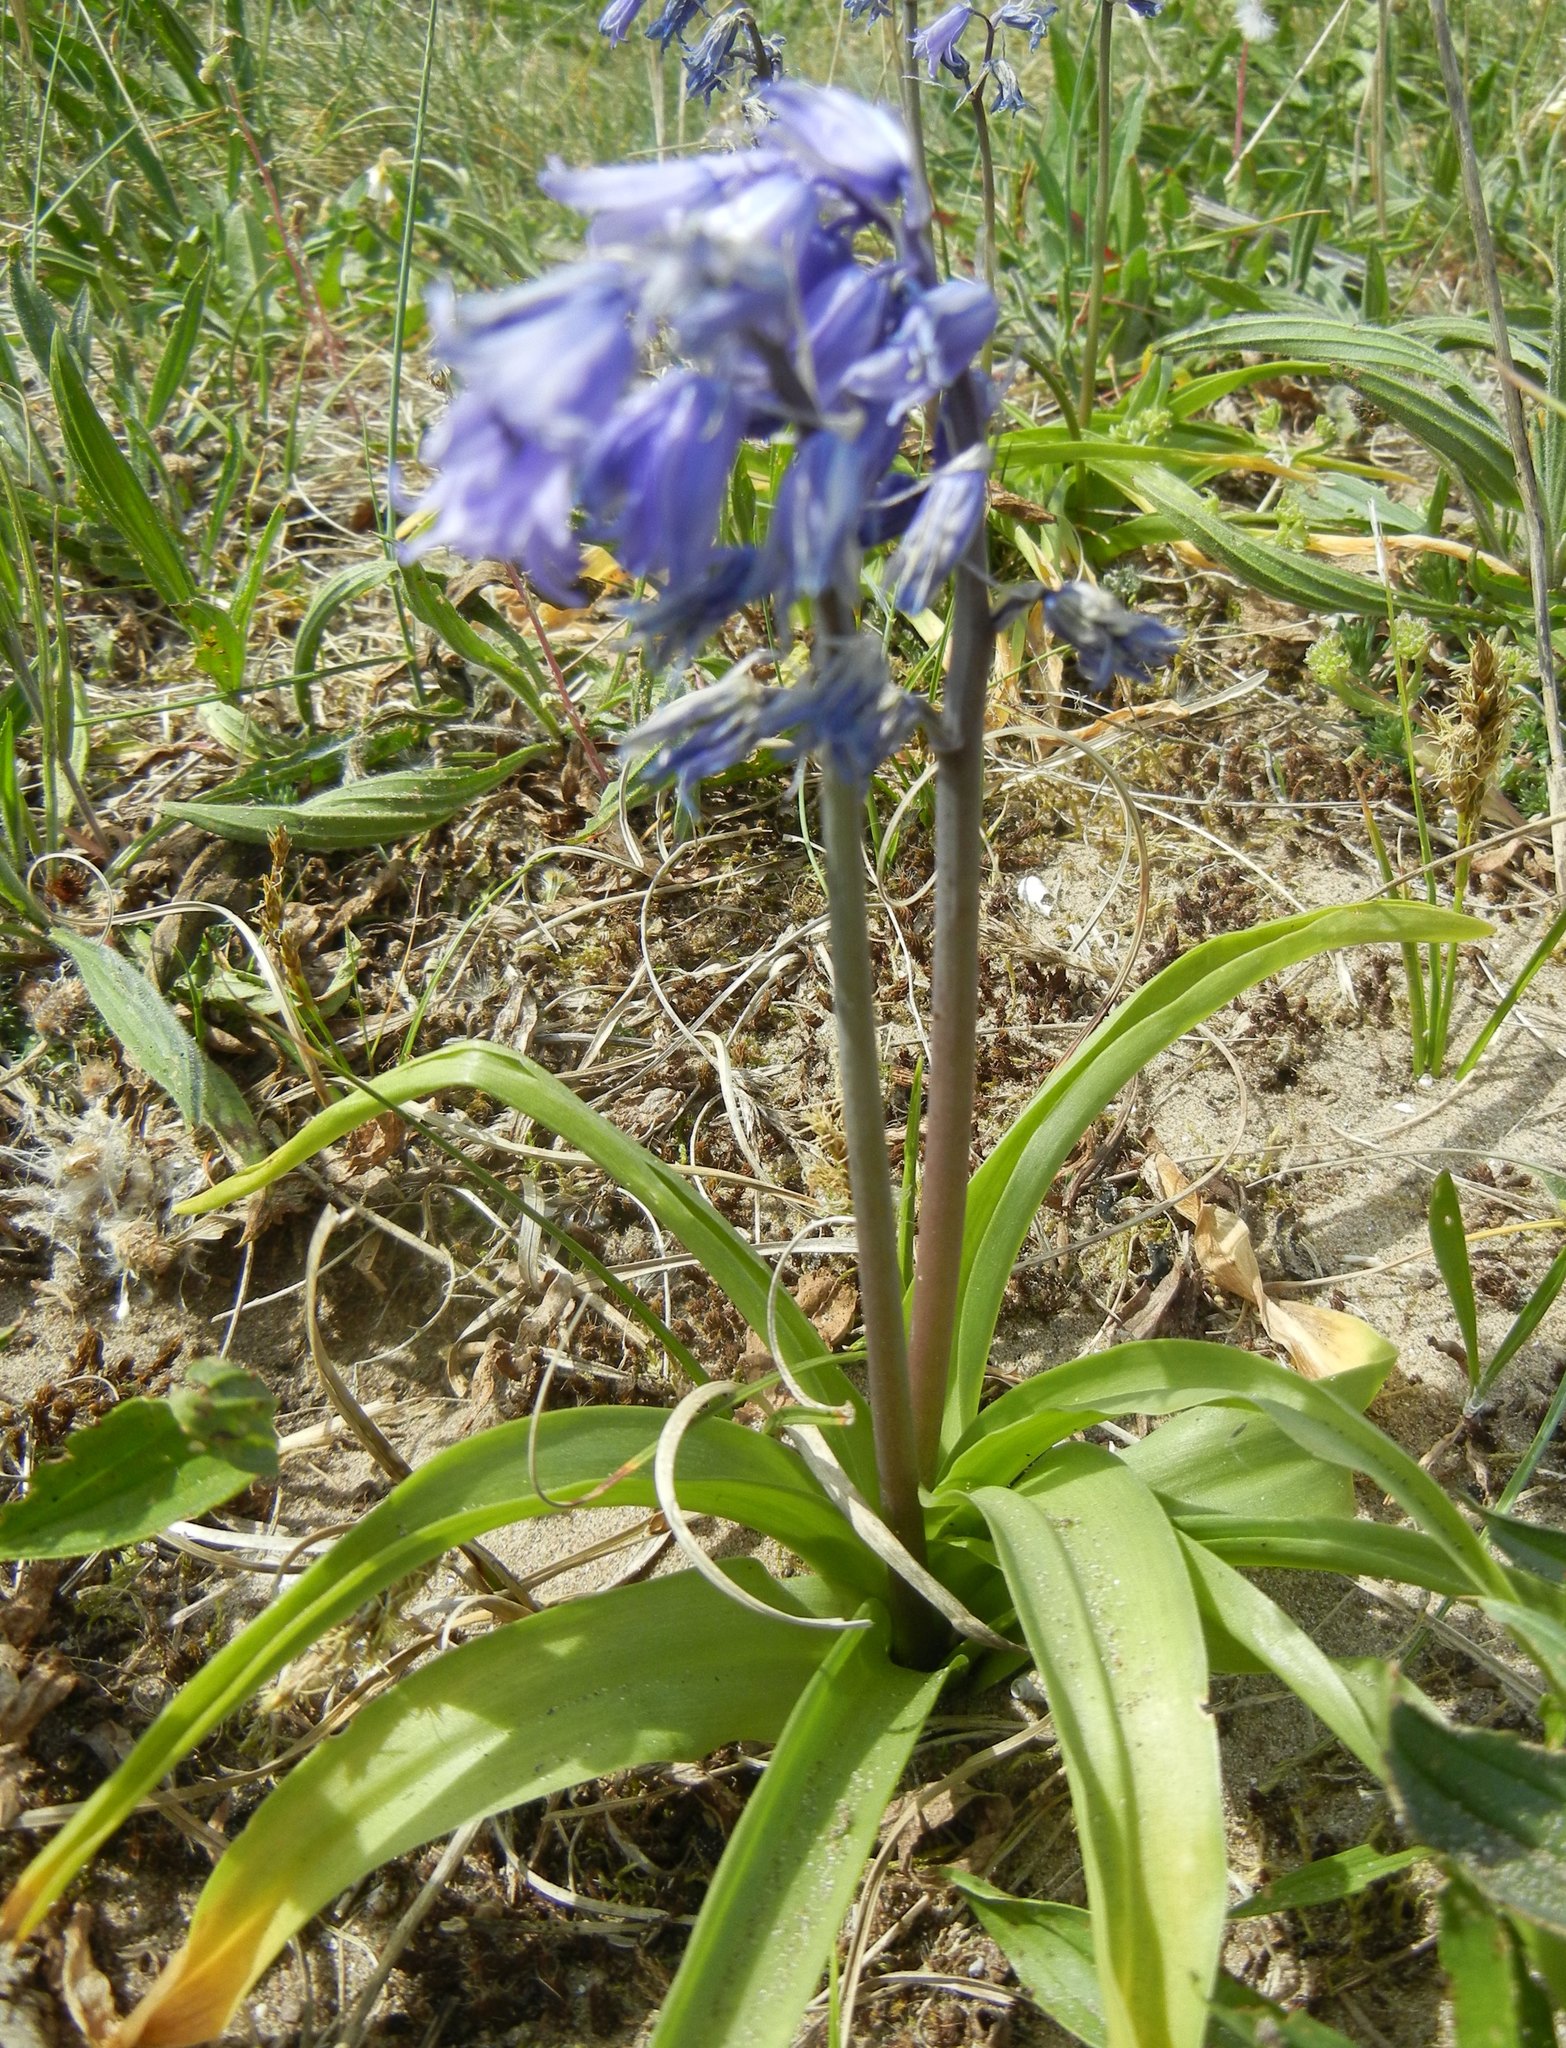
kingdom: Plantae
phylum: Tracheophyta
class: Liliopsida
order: Asparagales
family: Asparagaceae
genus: Hyacinthoides
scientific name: Hyacinthoides massartiana
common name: Hyacinthoides
